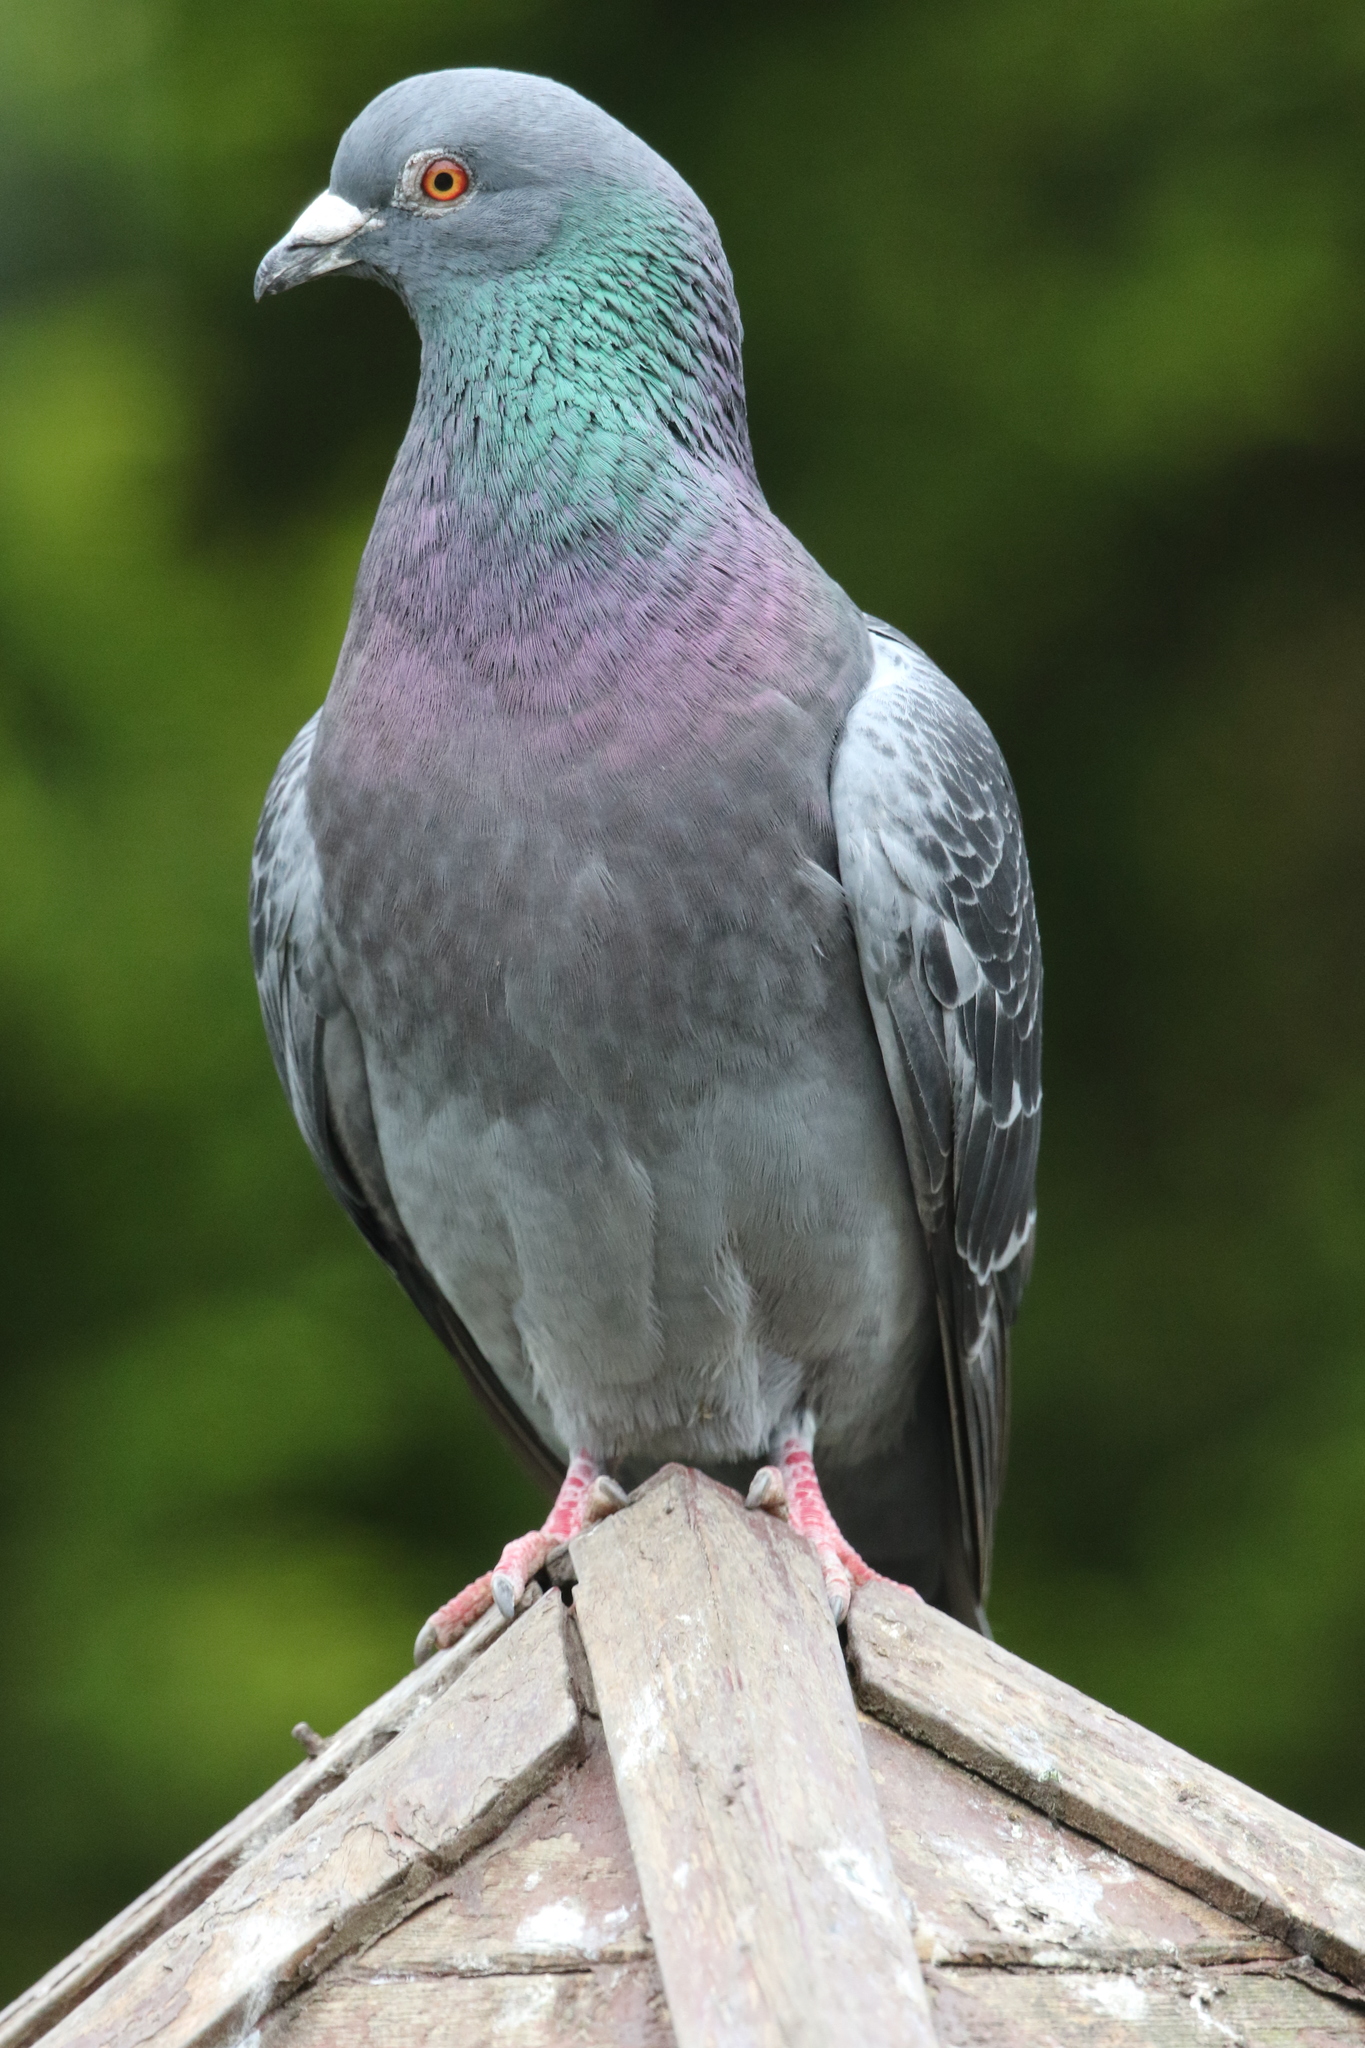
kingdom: Animalia
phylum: Chordata
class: Aves
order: Columbiformes
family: Columbidae
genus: Columba
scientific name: Columba livia
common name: Rock pigeon
